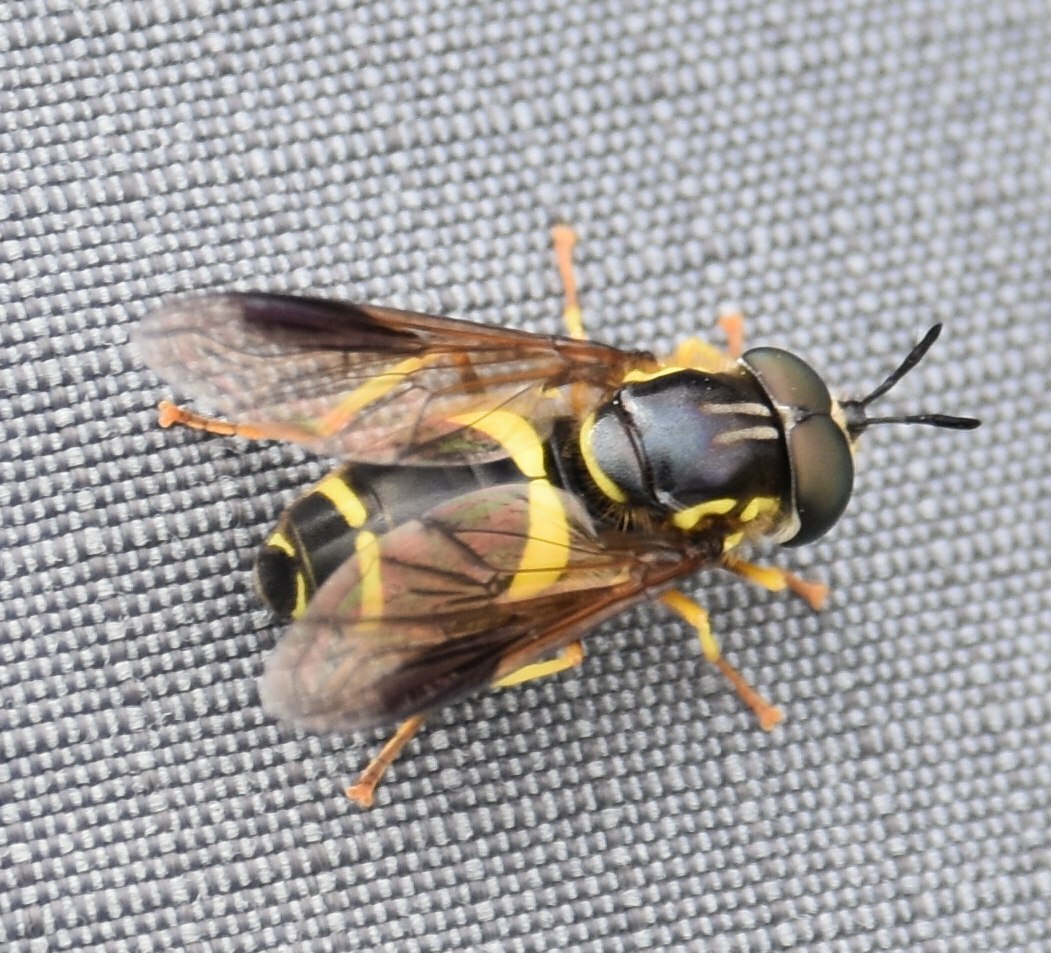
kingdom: Animalia
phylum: Arthropoda
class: Insecta
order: Diptera
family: Syrphidae
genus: Chrysotoxum
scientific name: Chrysotoxum bicincta
